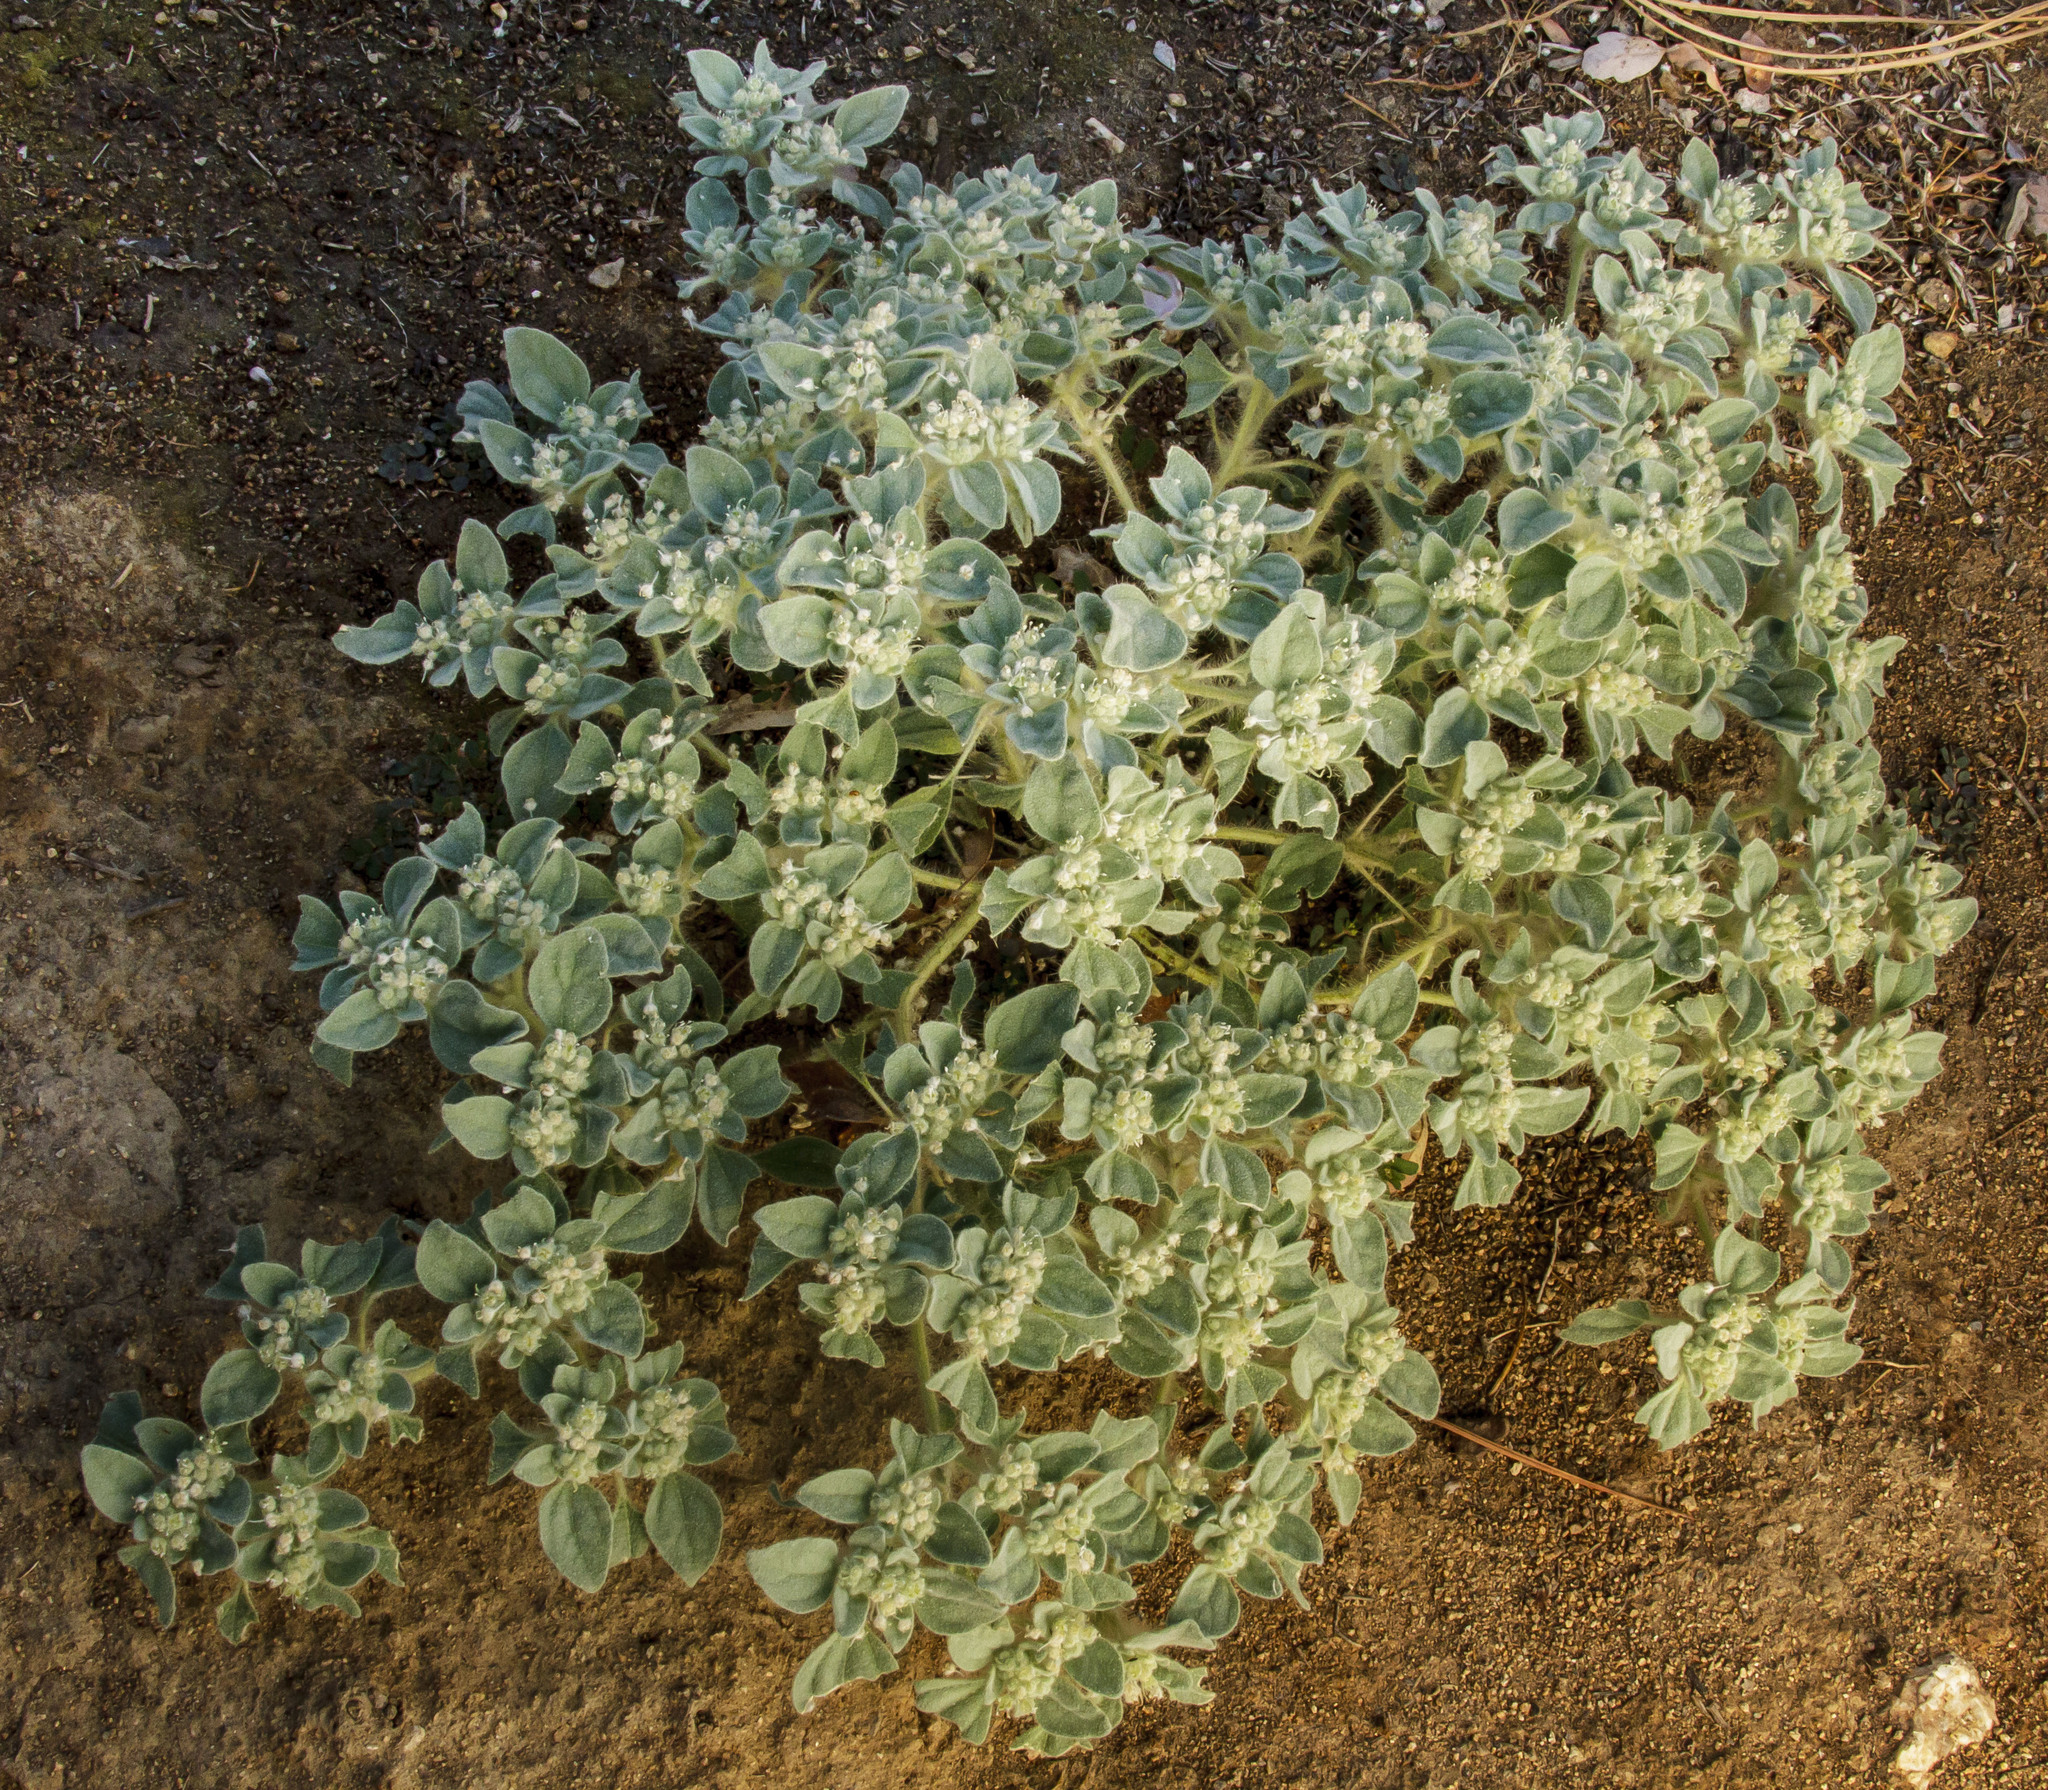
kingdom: Plantae
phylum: Tracheophyta
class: Magnoliopsida
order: Malpighiales
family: Euphorbiaceae
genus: Croton
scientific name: Croton setiger
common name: Dove weed
